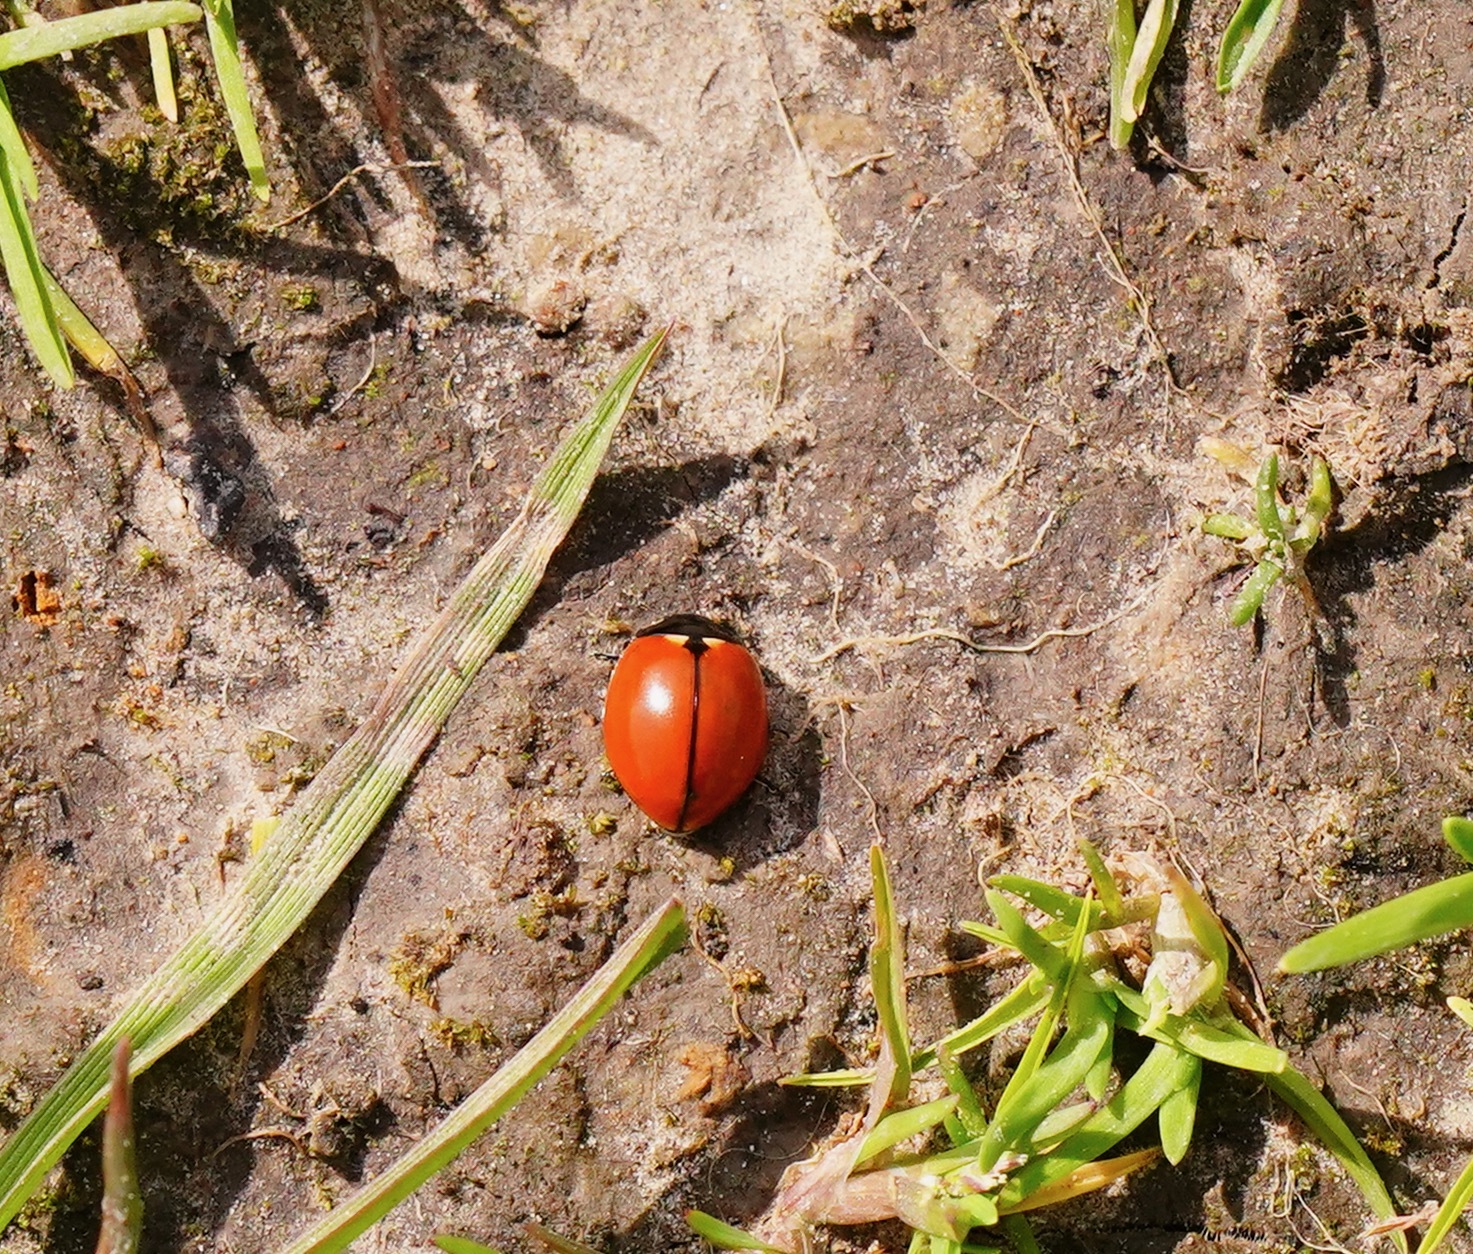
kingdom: Animalia
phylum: Arthropoda
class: Insecta
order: Coleoptera
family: Coccinellidae
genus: Coccinella
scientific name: Coccinella californica
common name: Lady beetle
